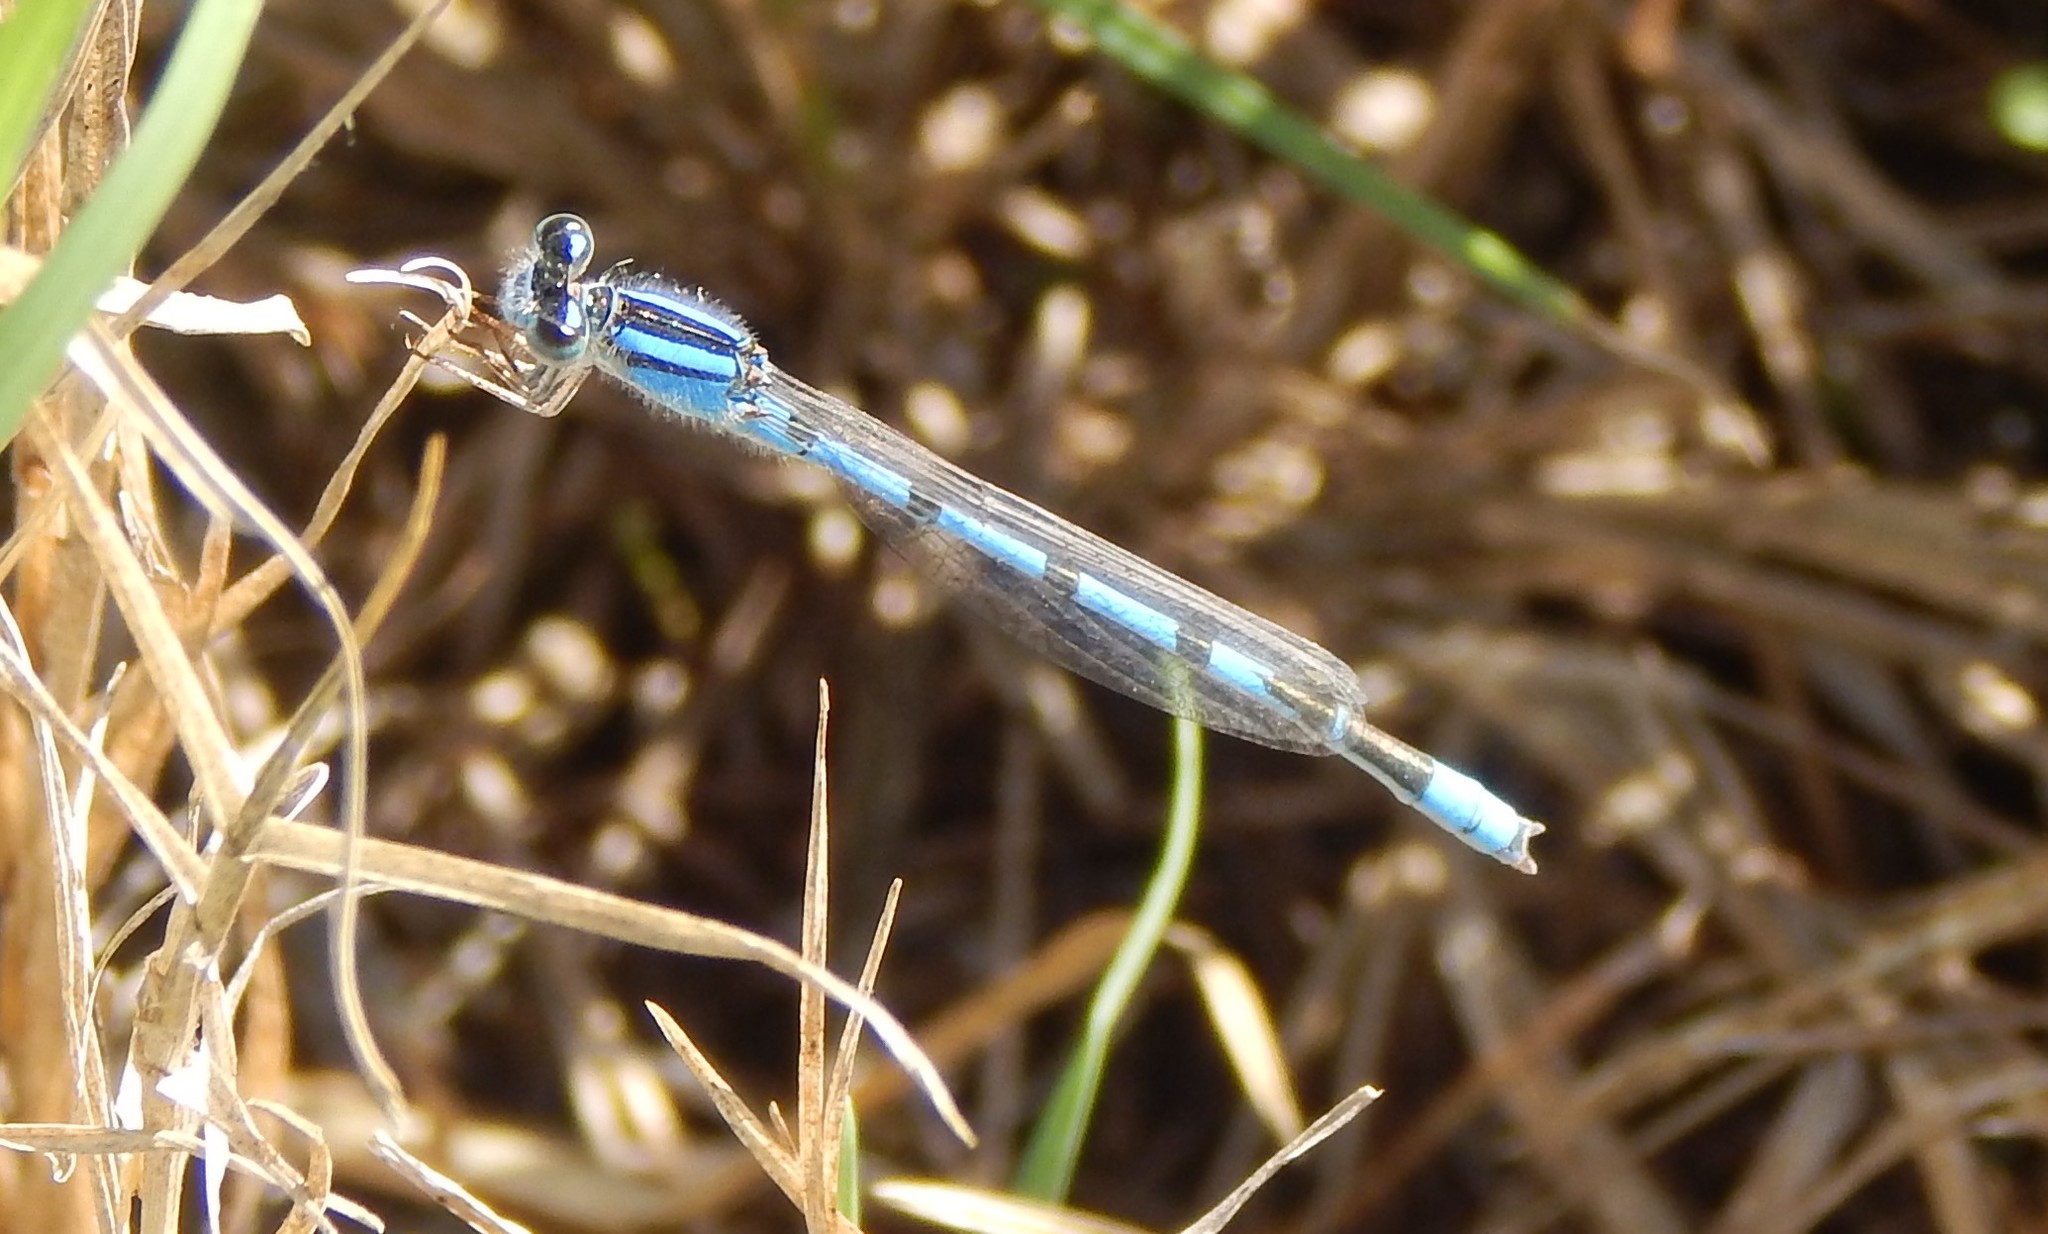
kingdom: Animalia
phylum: Arthropoda
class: Insecta
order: Odonata
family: Coenagrionidae
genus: Enallagma
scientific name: Enallagma civile
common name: Damselfly
